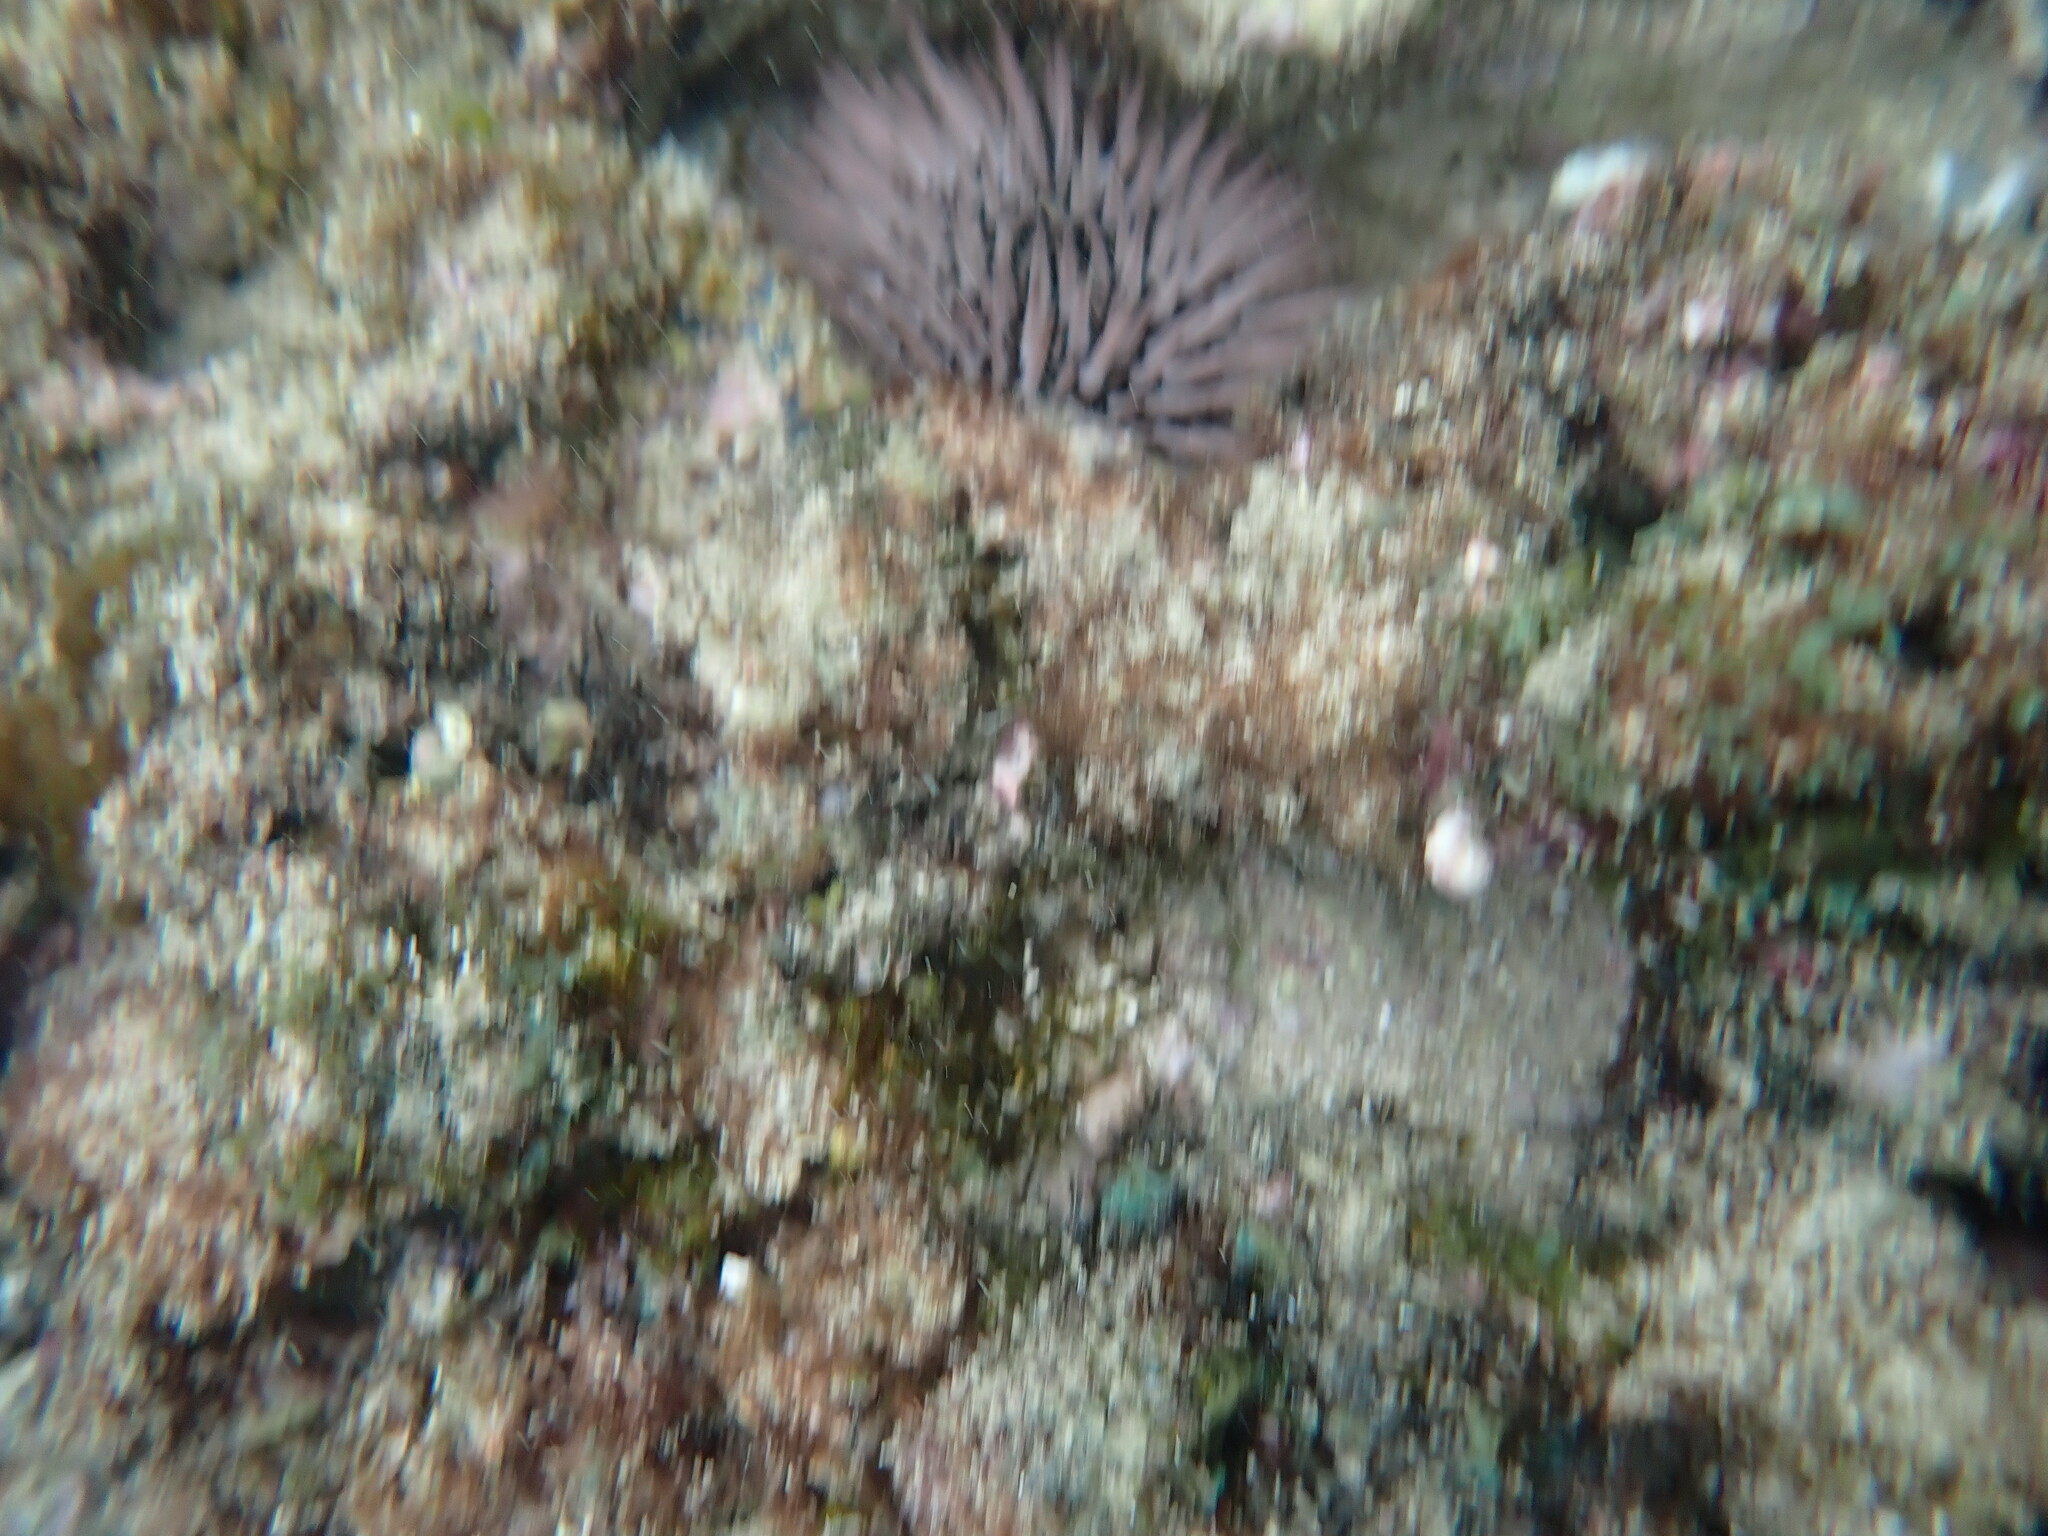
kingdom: Animalia
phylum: Echinodermata
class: Echinoidea
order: Camarodonta
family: Echinometridae
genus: Echinometra
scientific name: Echinometra mathaei
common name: Rock-boring urchin
